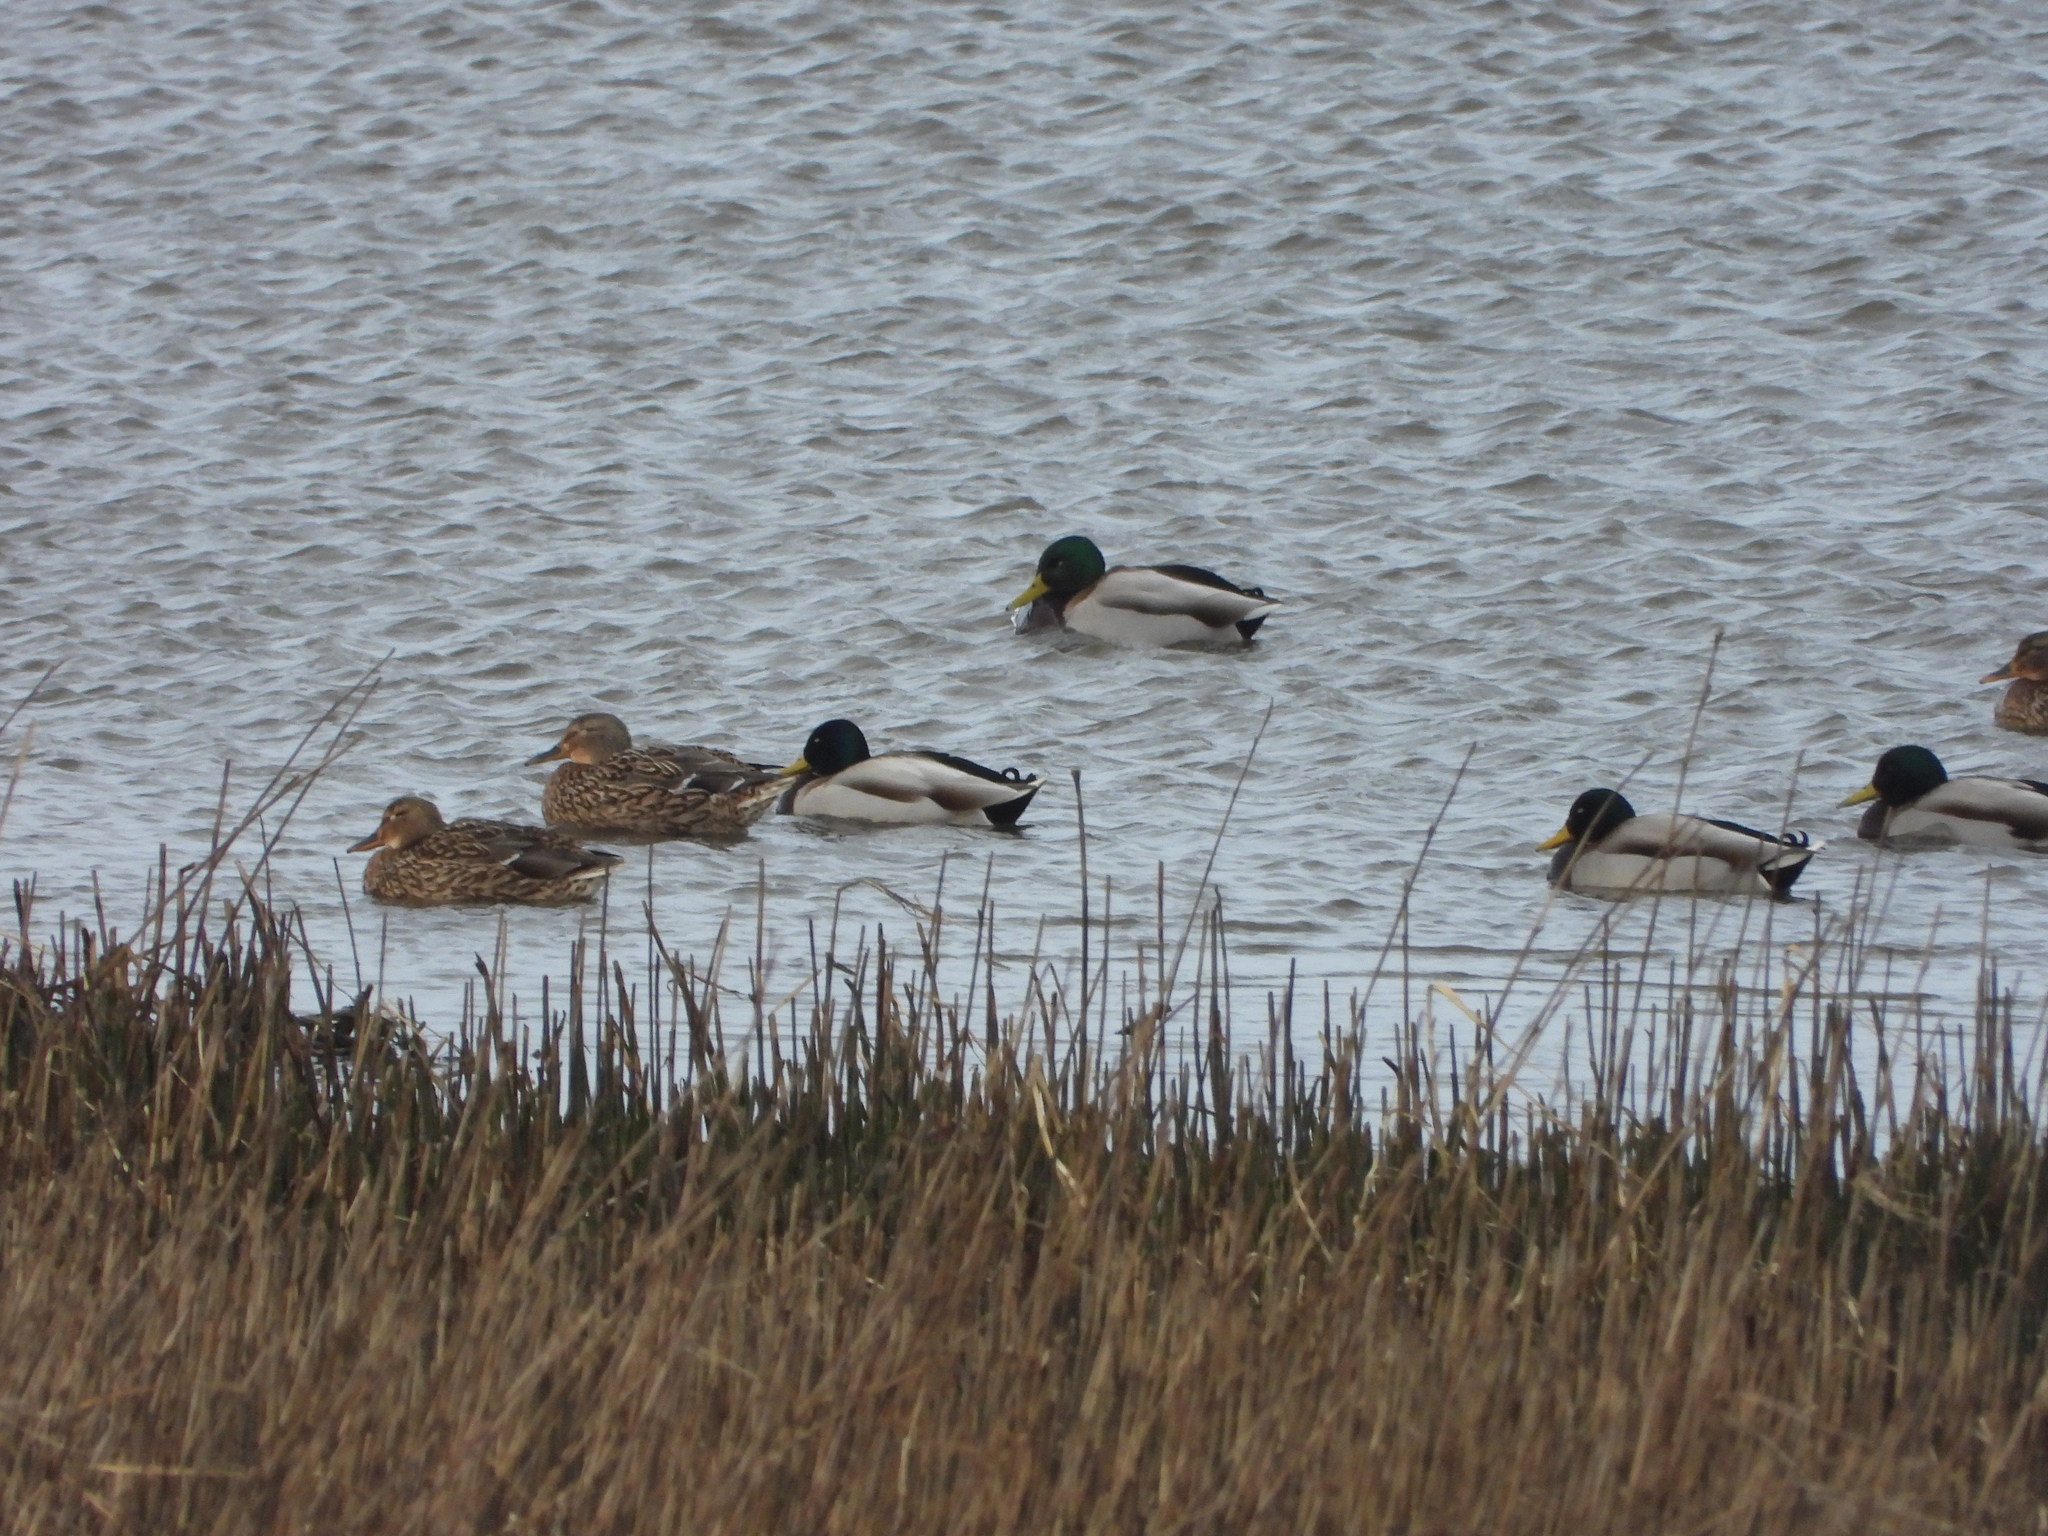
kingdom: Animalia
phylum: Chordata
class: Aves
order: Anseriformes
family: Anatidae
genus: Anas
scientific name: Anas platyrhynchos
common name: Mallard
